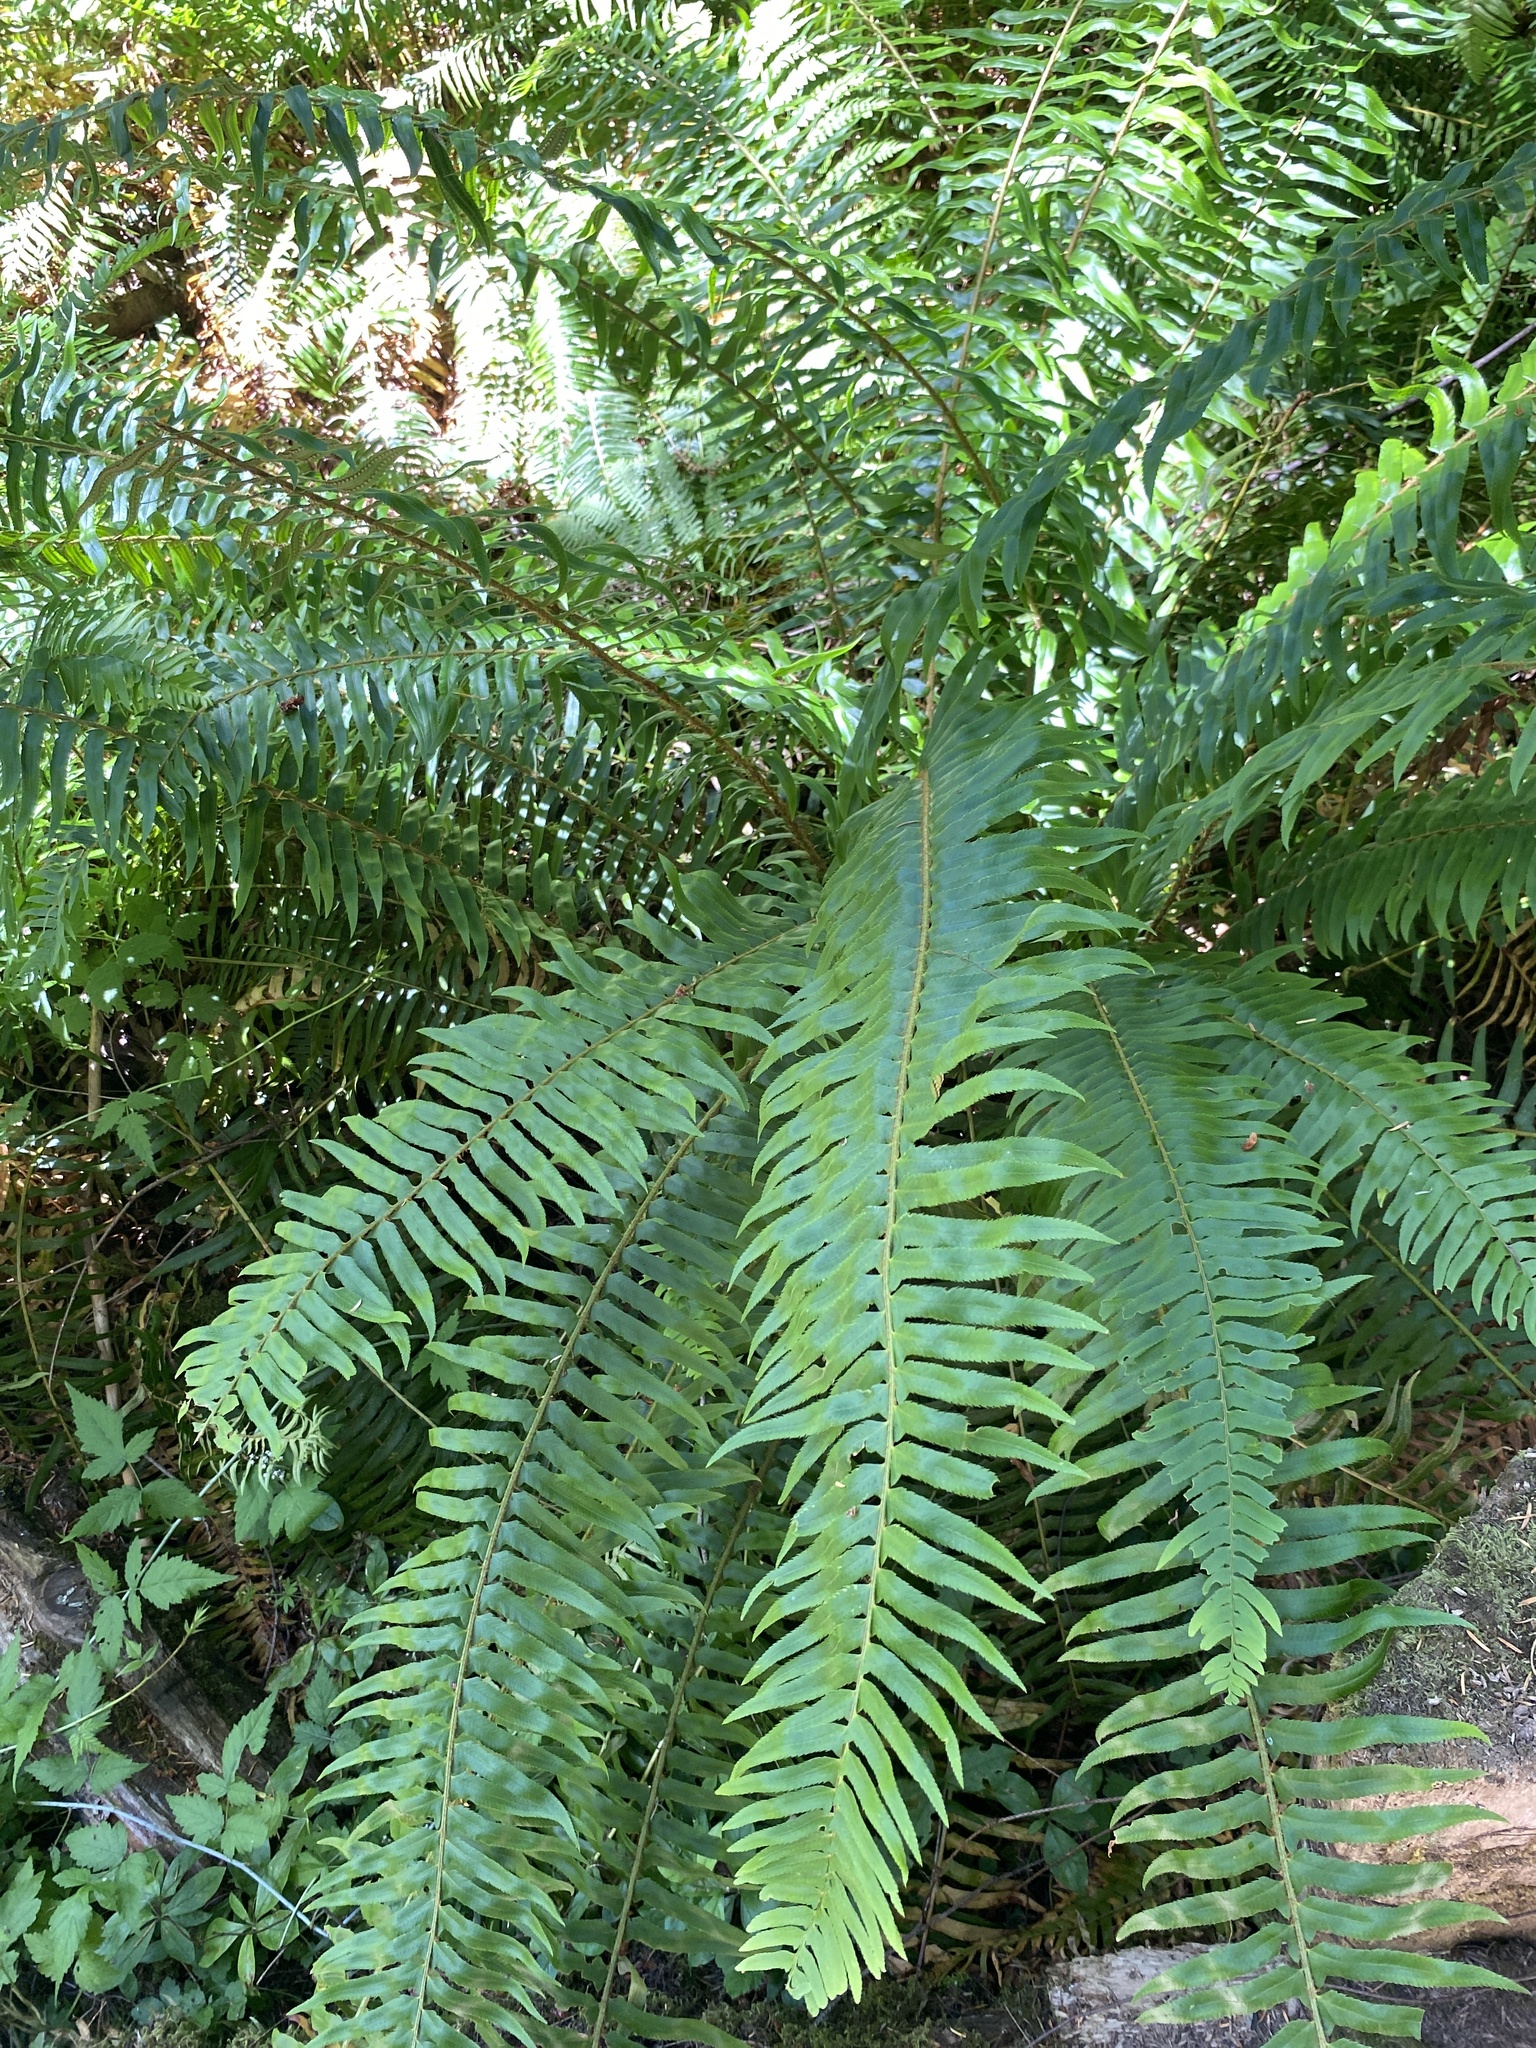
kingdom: Plantae
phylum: Tracheophyta
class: Polypodiopsida
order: Polypodiales
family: Dryopteridaceae
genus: Polystichum
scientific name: Polystichum munitum
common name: Western sword-fern
